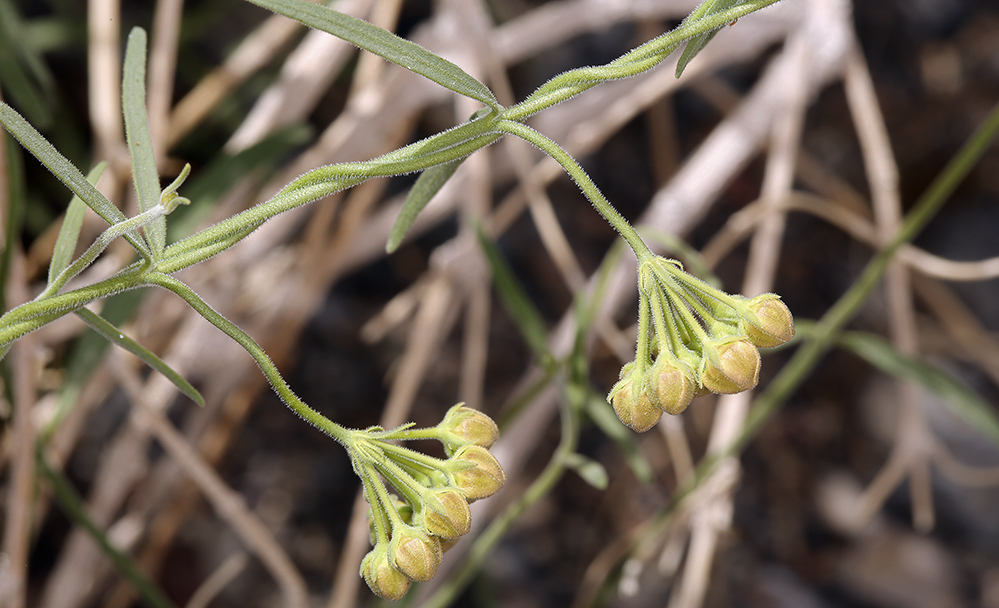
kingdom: Plantae
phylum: Tracheophyta
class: Magnoliopsida
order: Gentianales
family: Apocynaceae
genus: Funastrum
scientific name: Funastrum hirtellum
